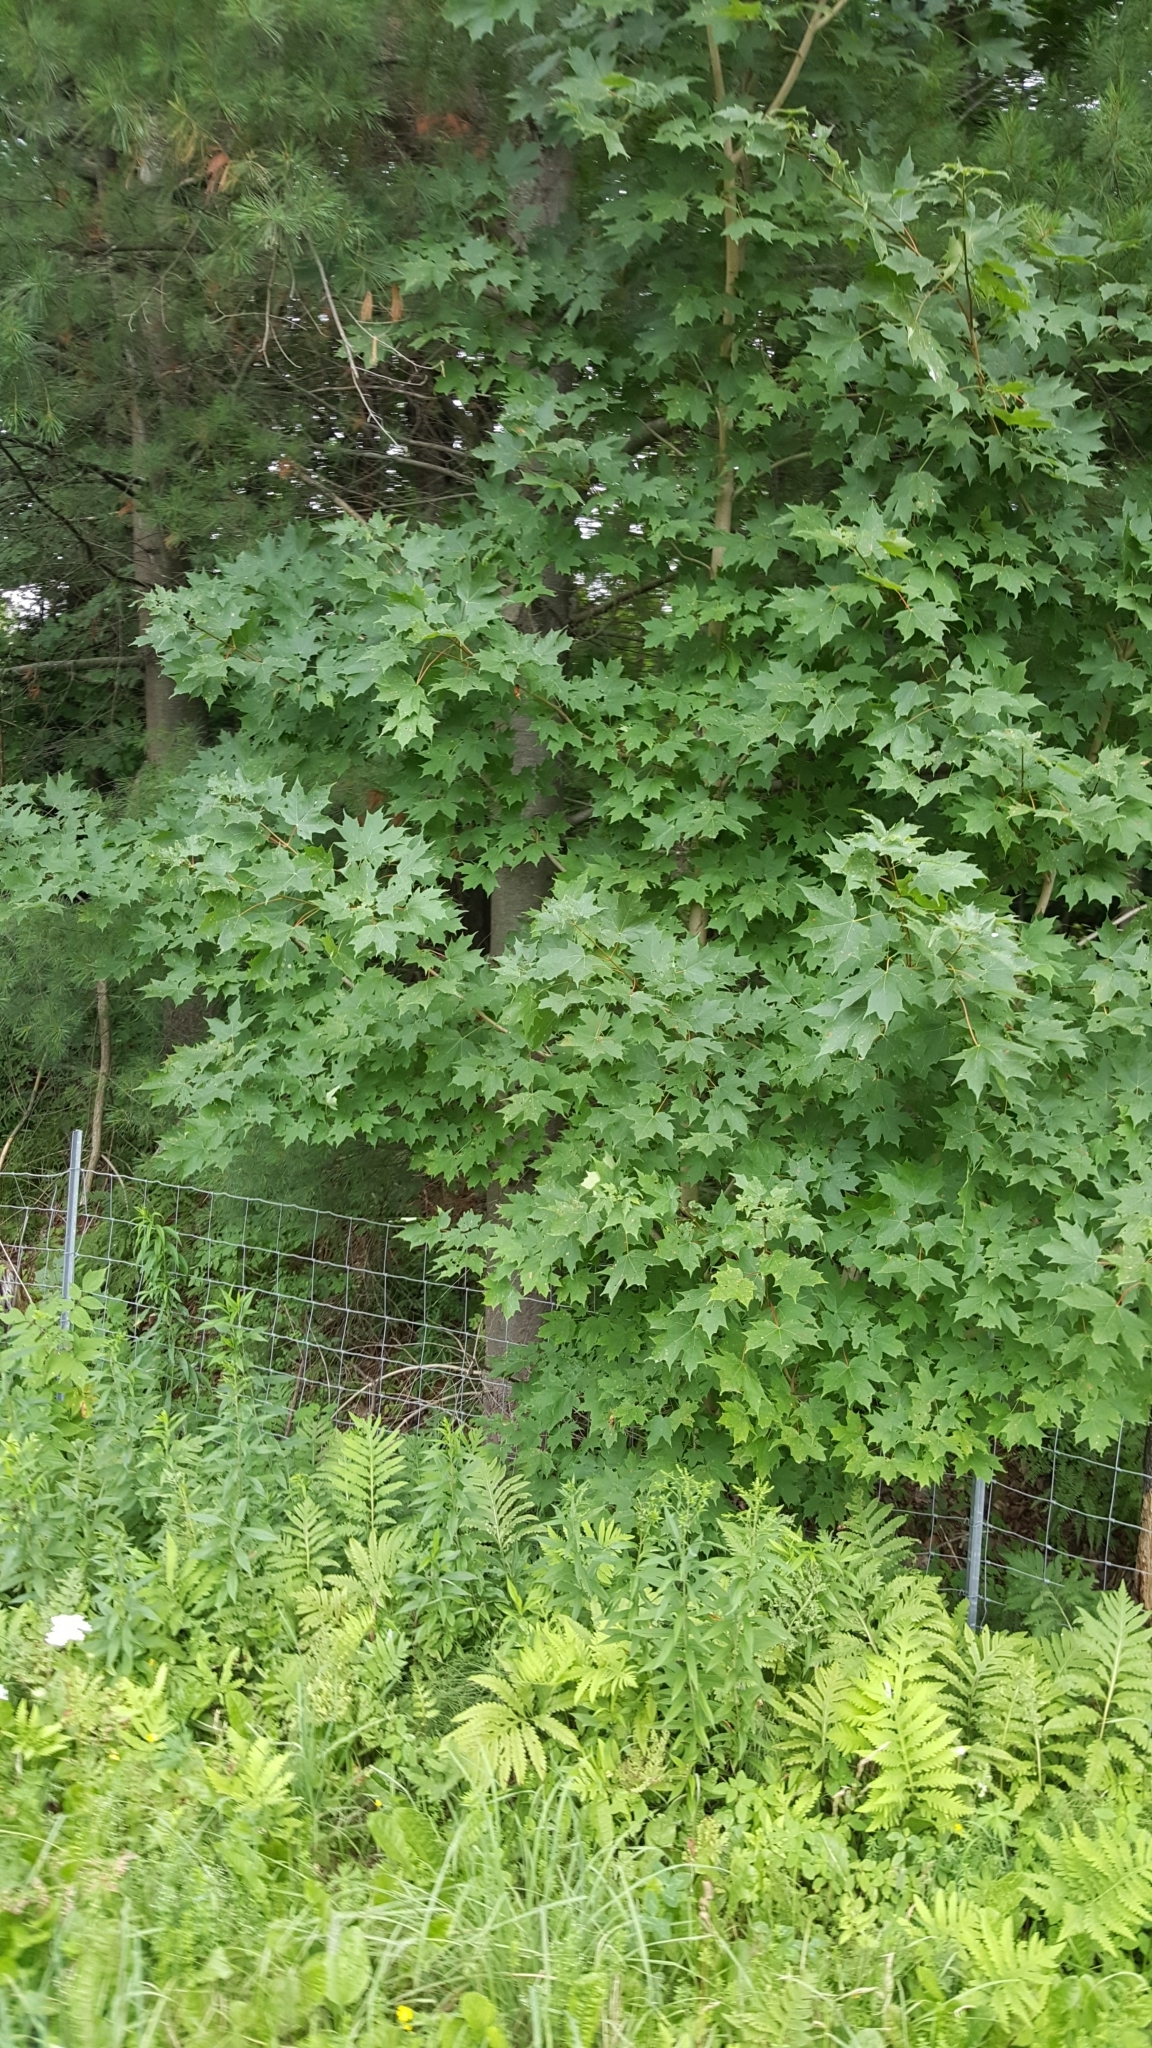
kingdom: Plantae
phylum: Tracheophyta
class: Magnoliopsida
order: Sapindales
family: Sapindaceae
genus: Acer
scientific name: Acer saccharum
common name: Sugar maple
